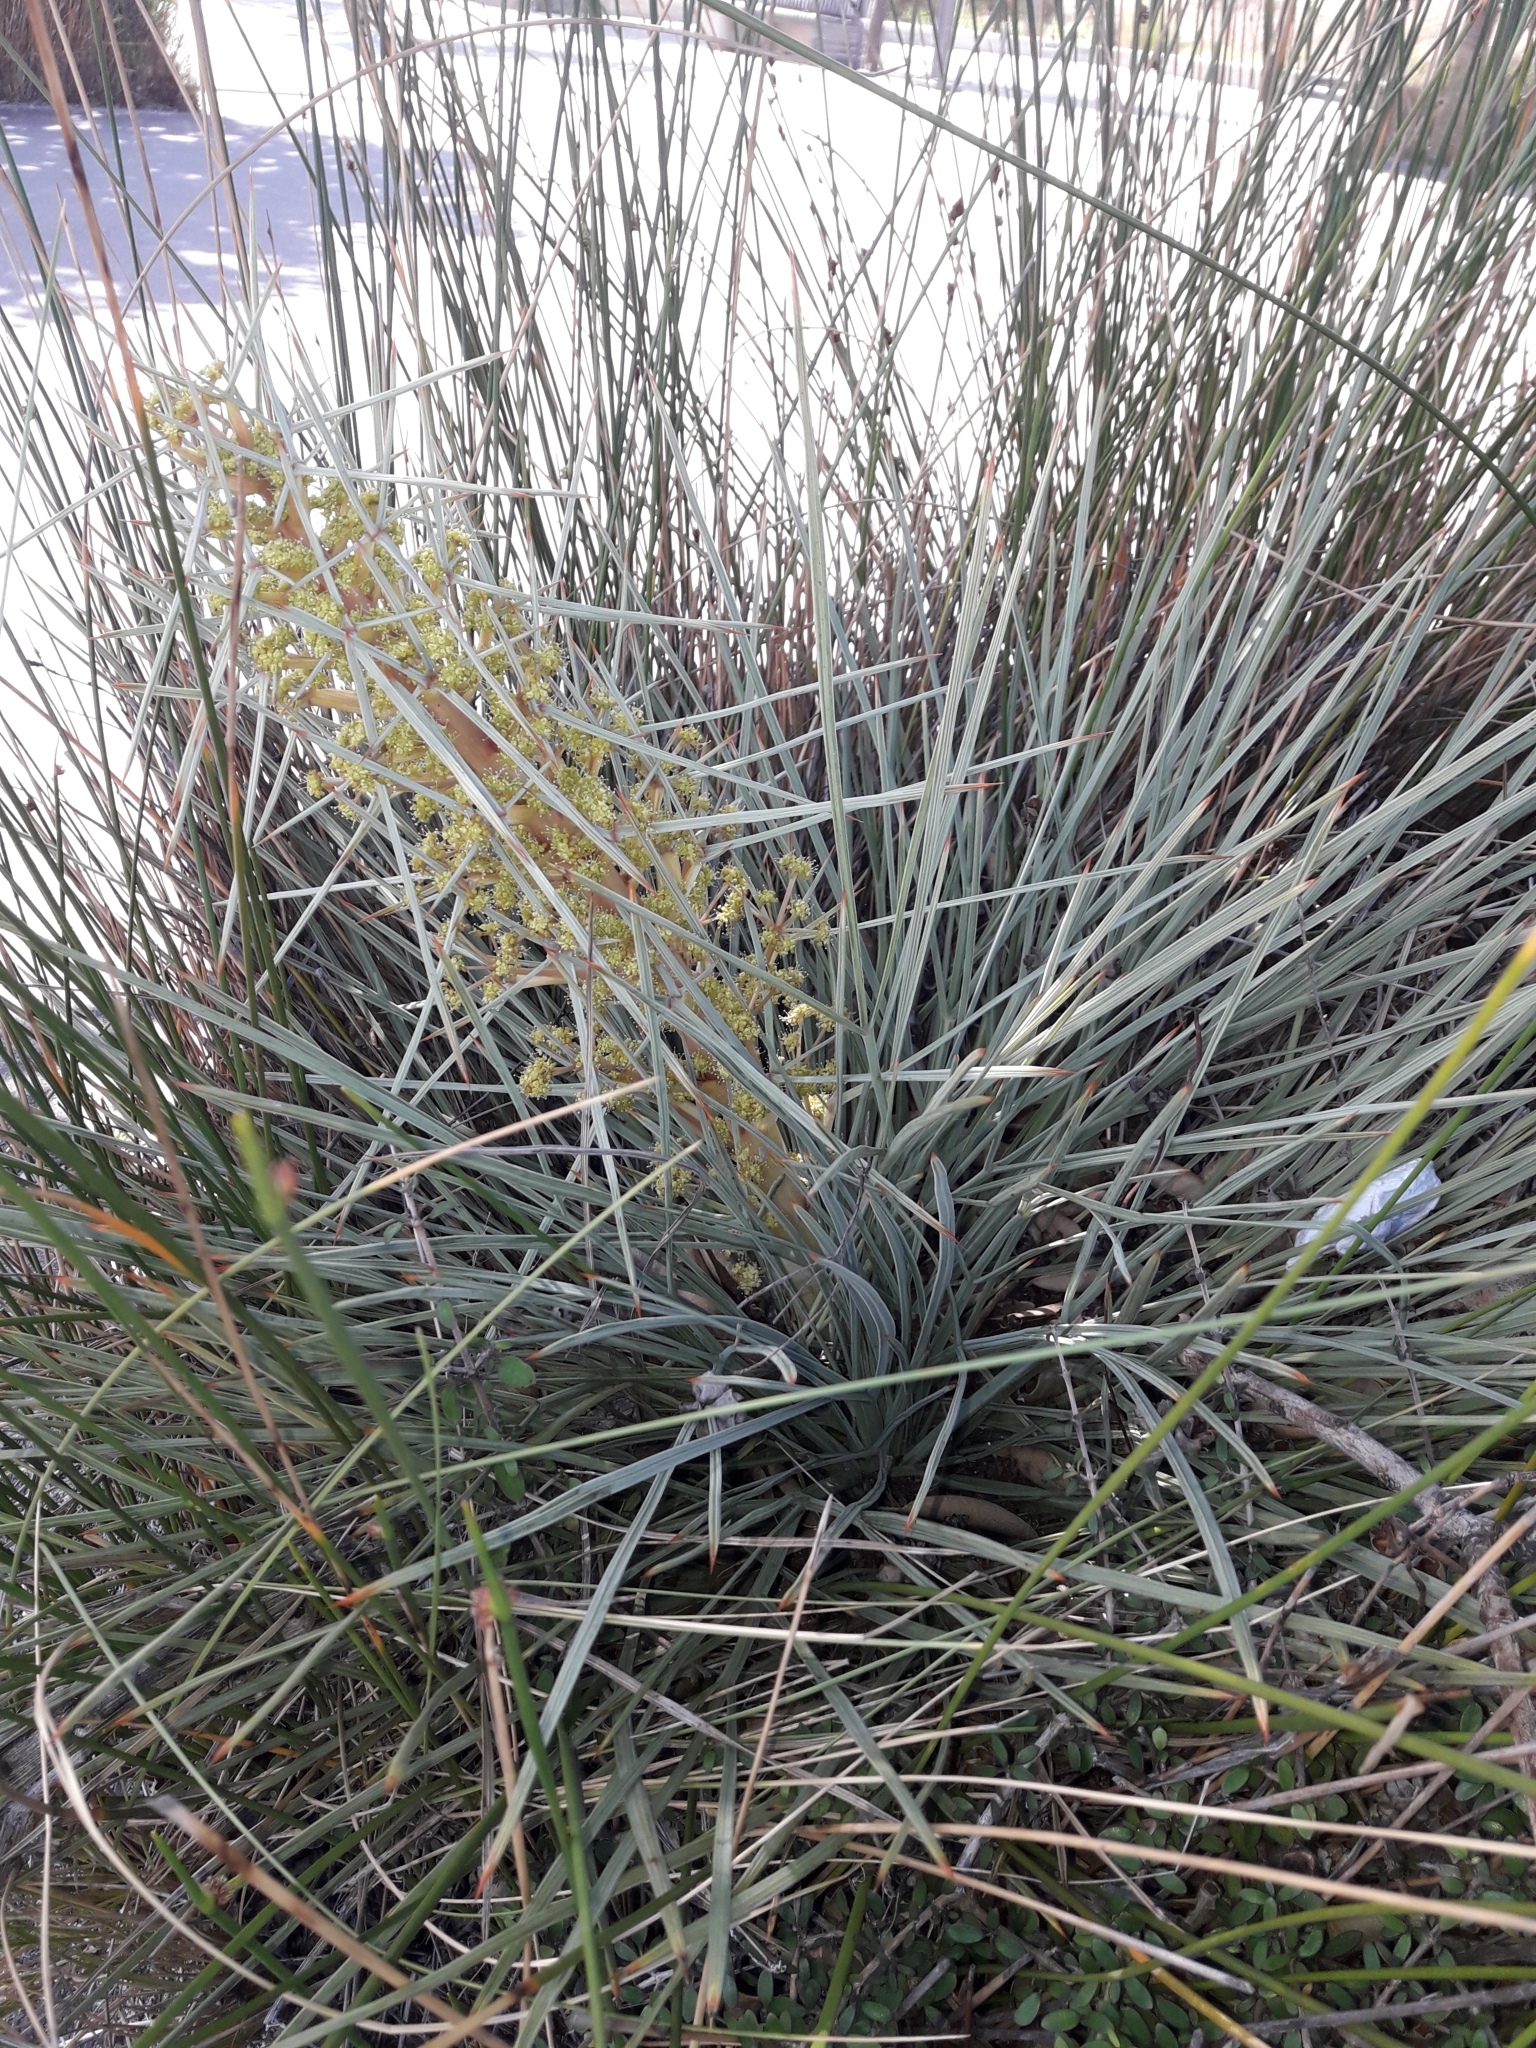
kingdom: Plantae
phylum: Tracheophyta
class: Magnoliopsida
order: Apiales
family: Apiaceae
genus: Aciphylla
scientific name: Aciphylla squarrosa
